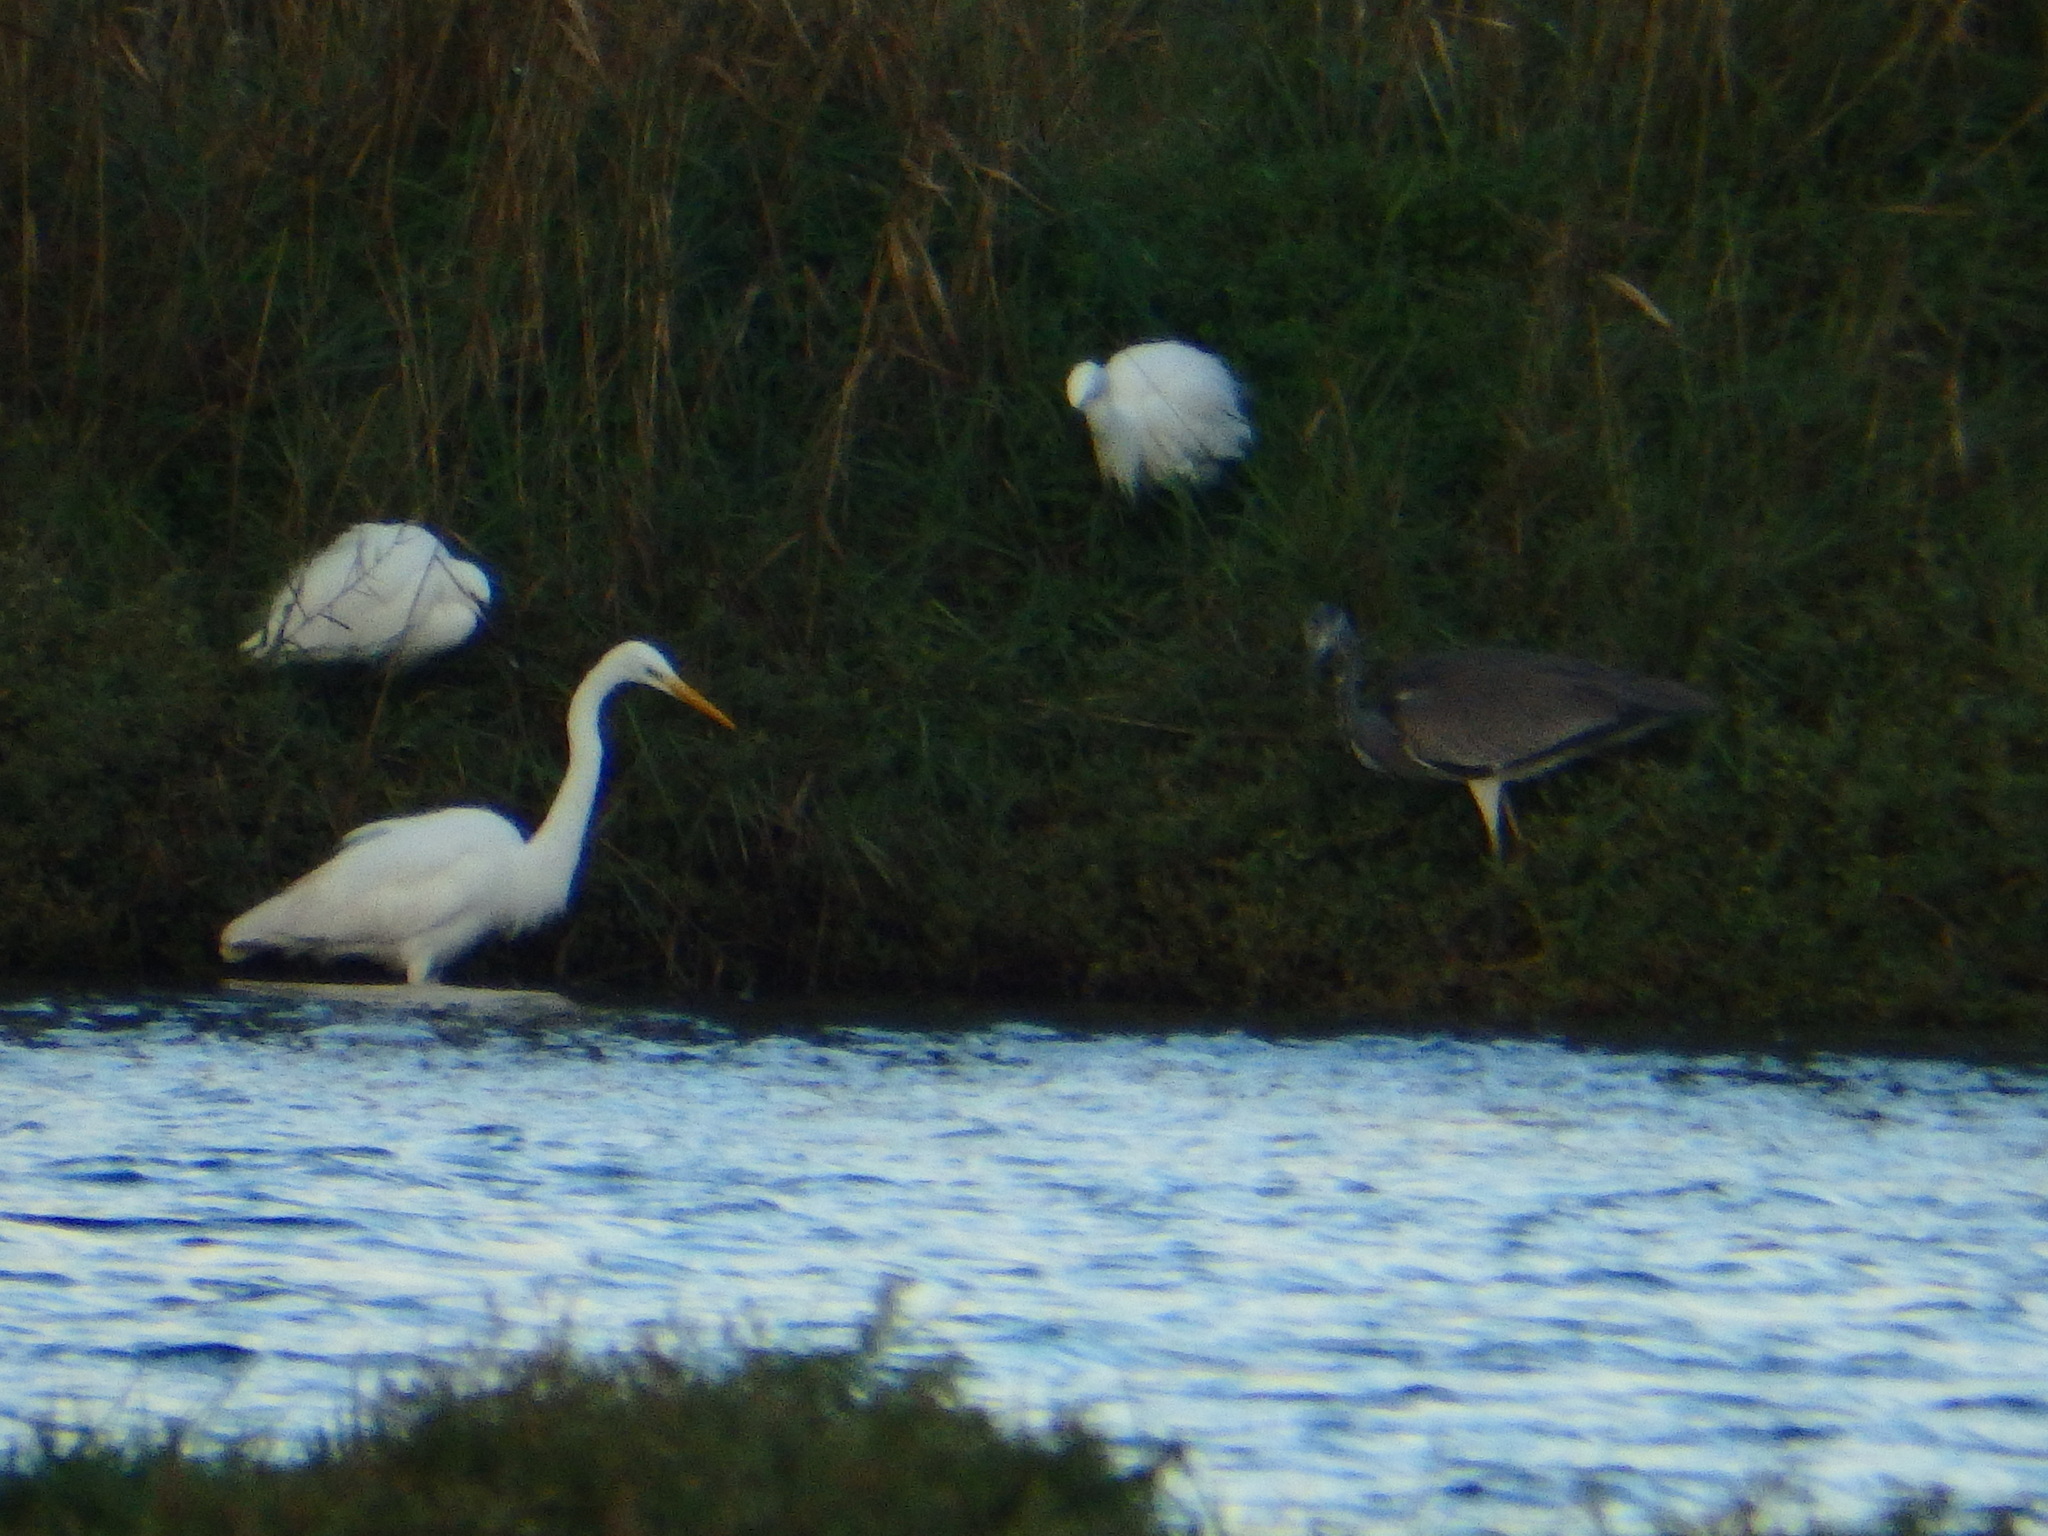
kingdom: Animalia
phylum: Chordata
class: Aves
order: Pelecaniformes
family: Ardeidae
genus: Ardea
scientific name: Ardea alba
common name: Great egret
